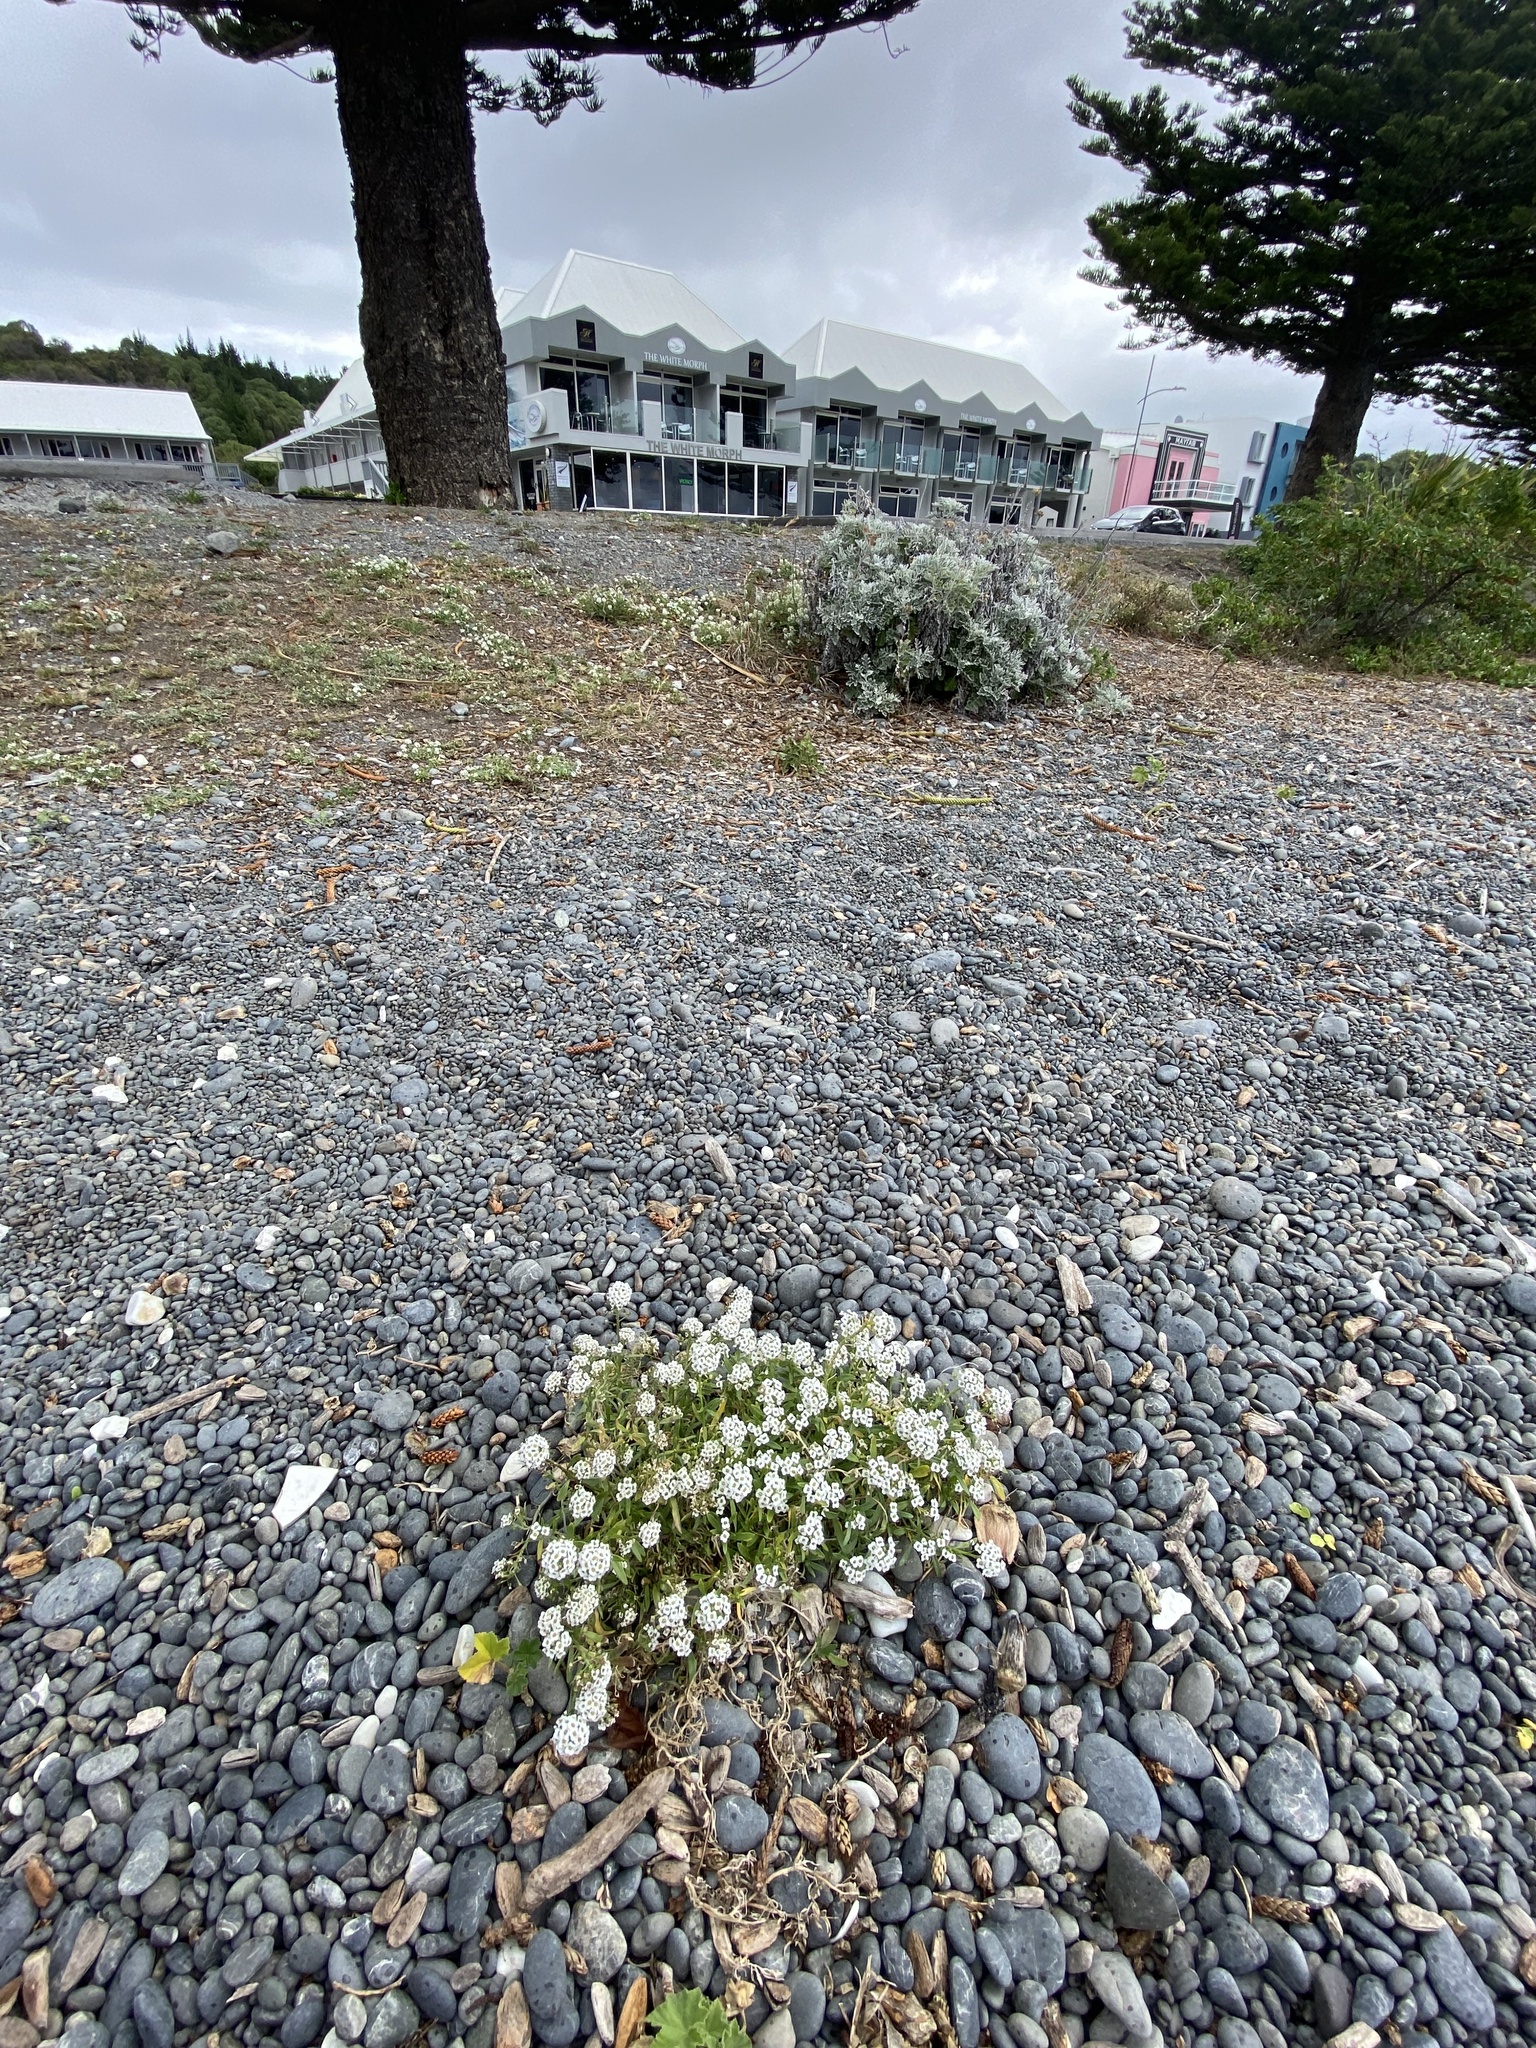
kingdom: Plantae
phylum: Tracheophyta
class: Magnoliopsida
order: Brassicales
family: Brassicaceae
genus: Lobularia
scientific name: Lobularia maritima
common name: Sweet alison
